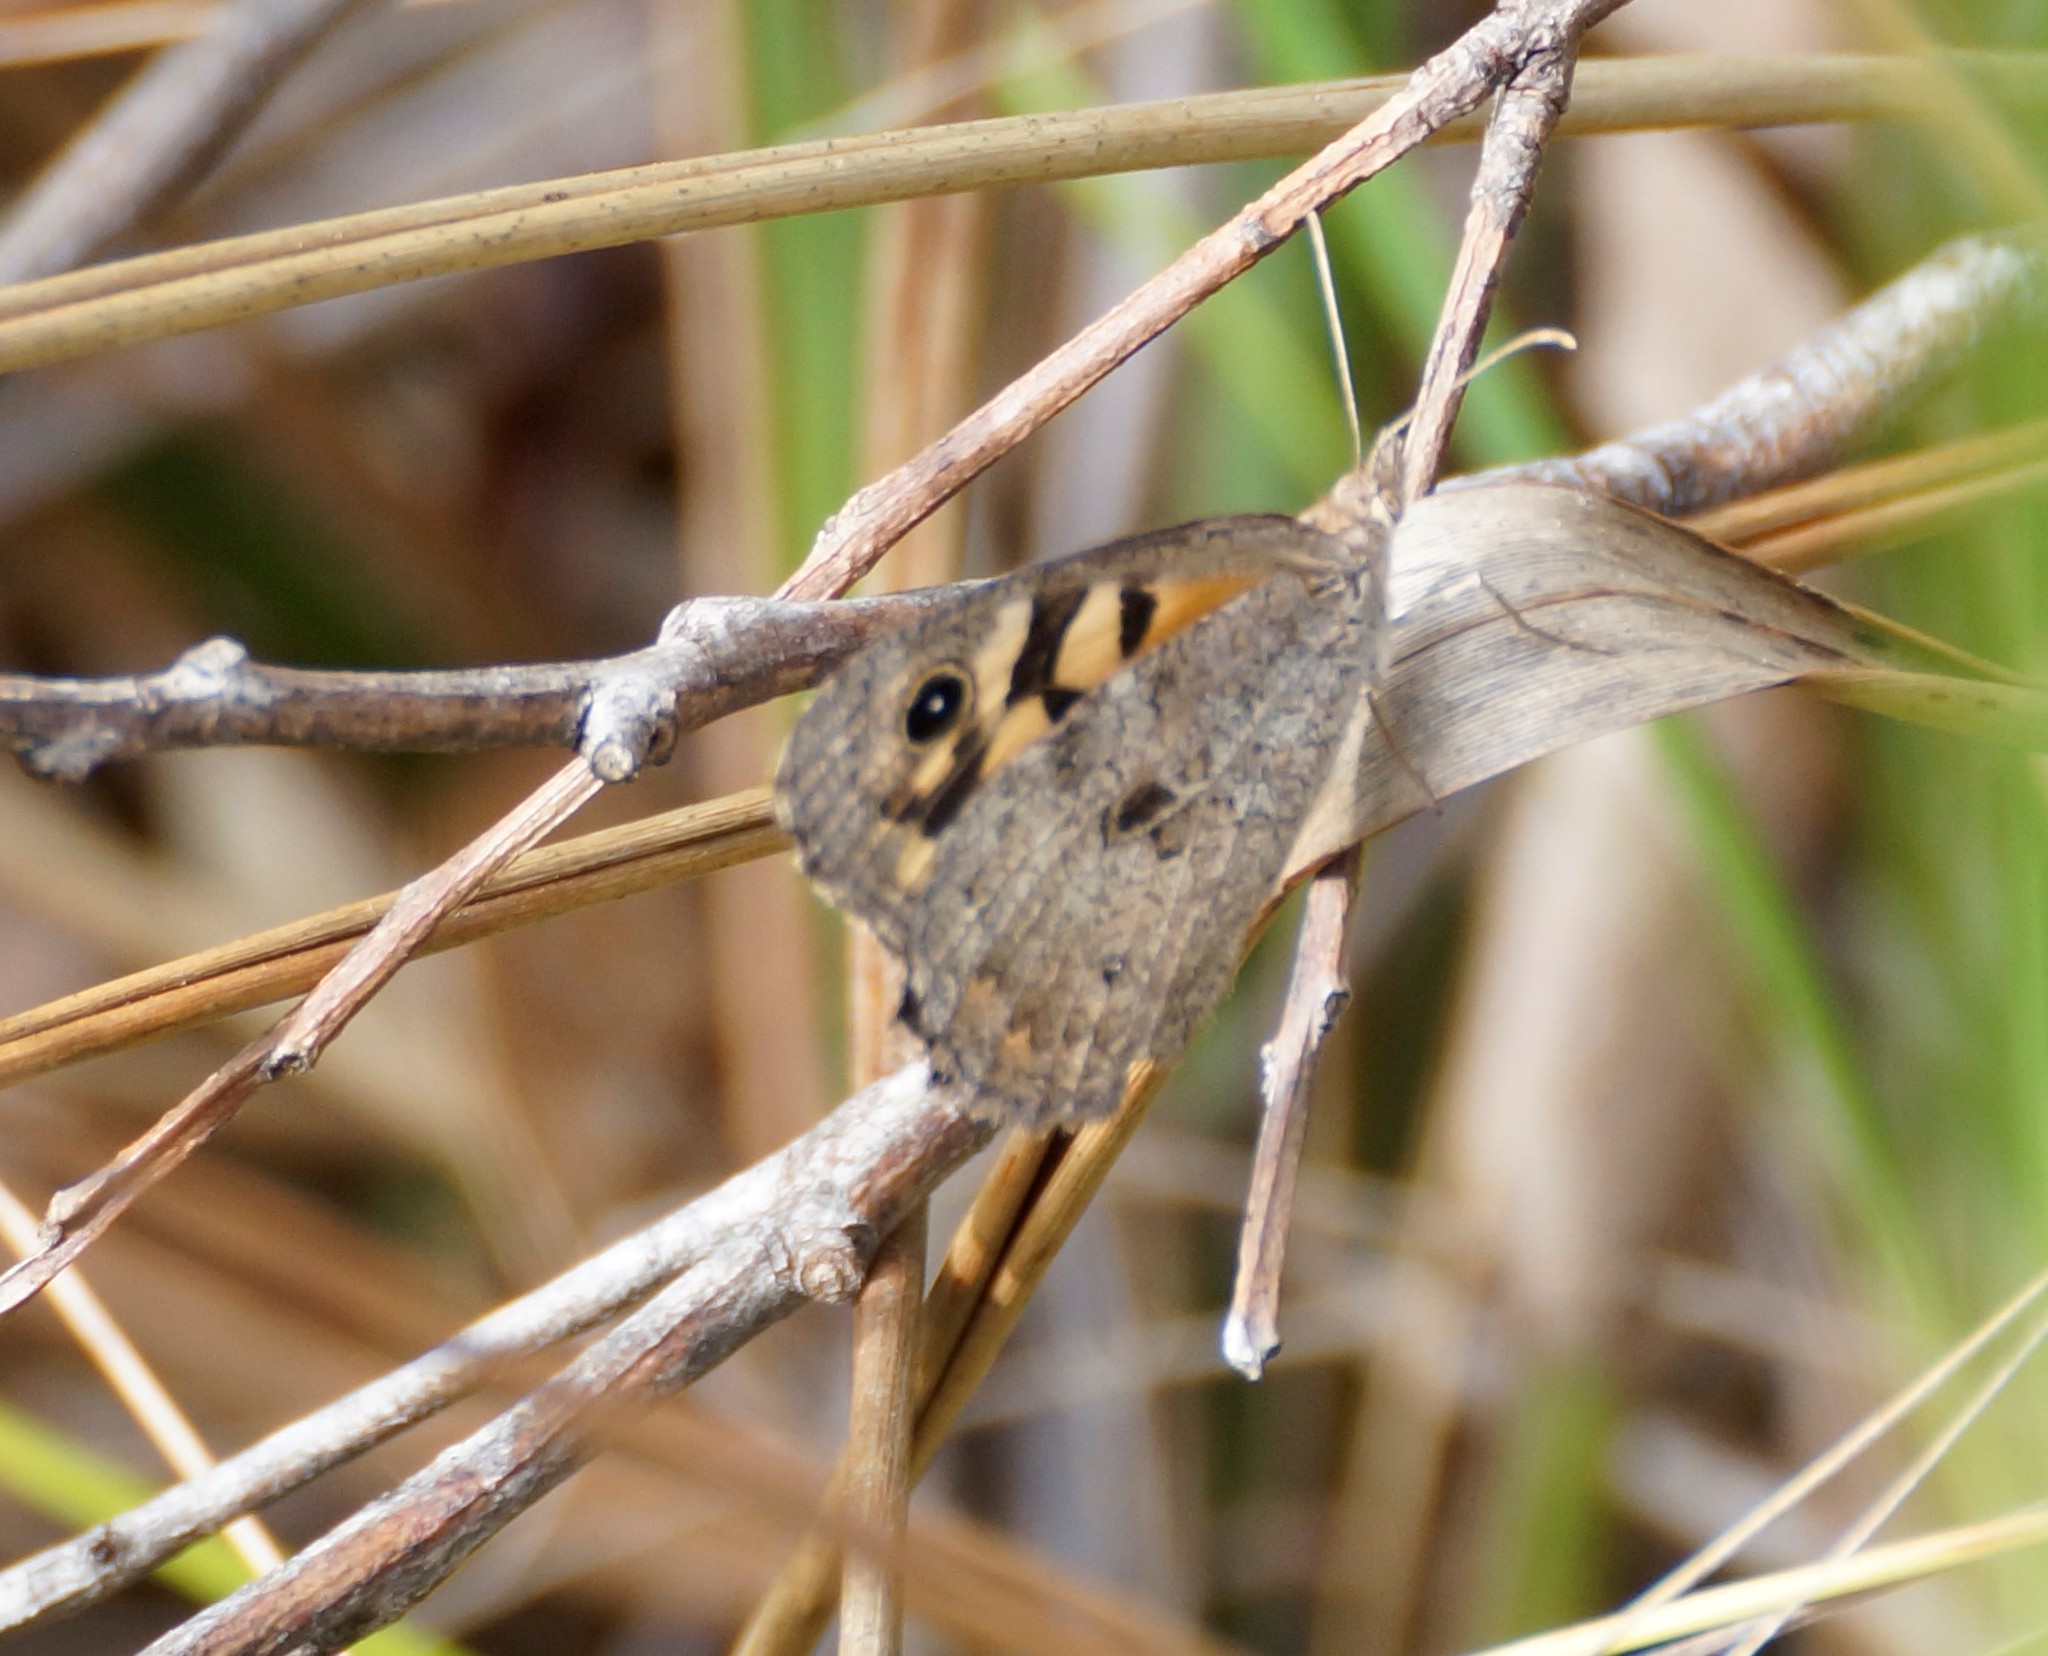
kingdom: Animalia
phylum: Arthropoda
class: Insecta
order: Lepidoptera
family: Nymphalidae
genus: Geitoneura
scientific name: Geitoneura klugii
